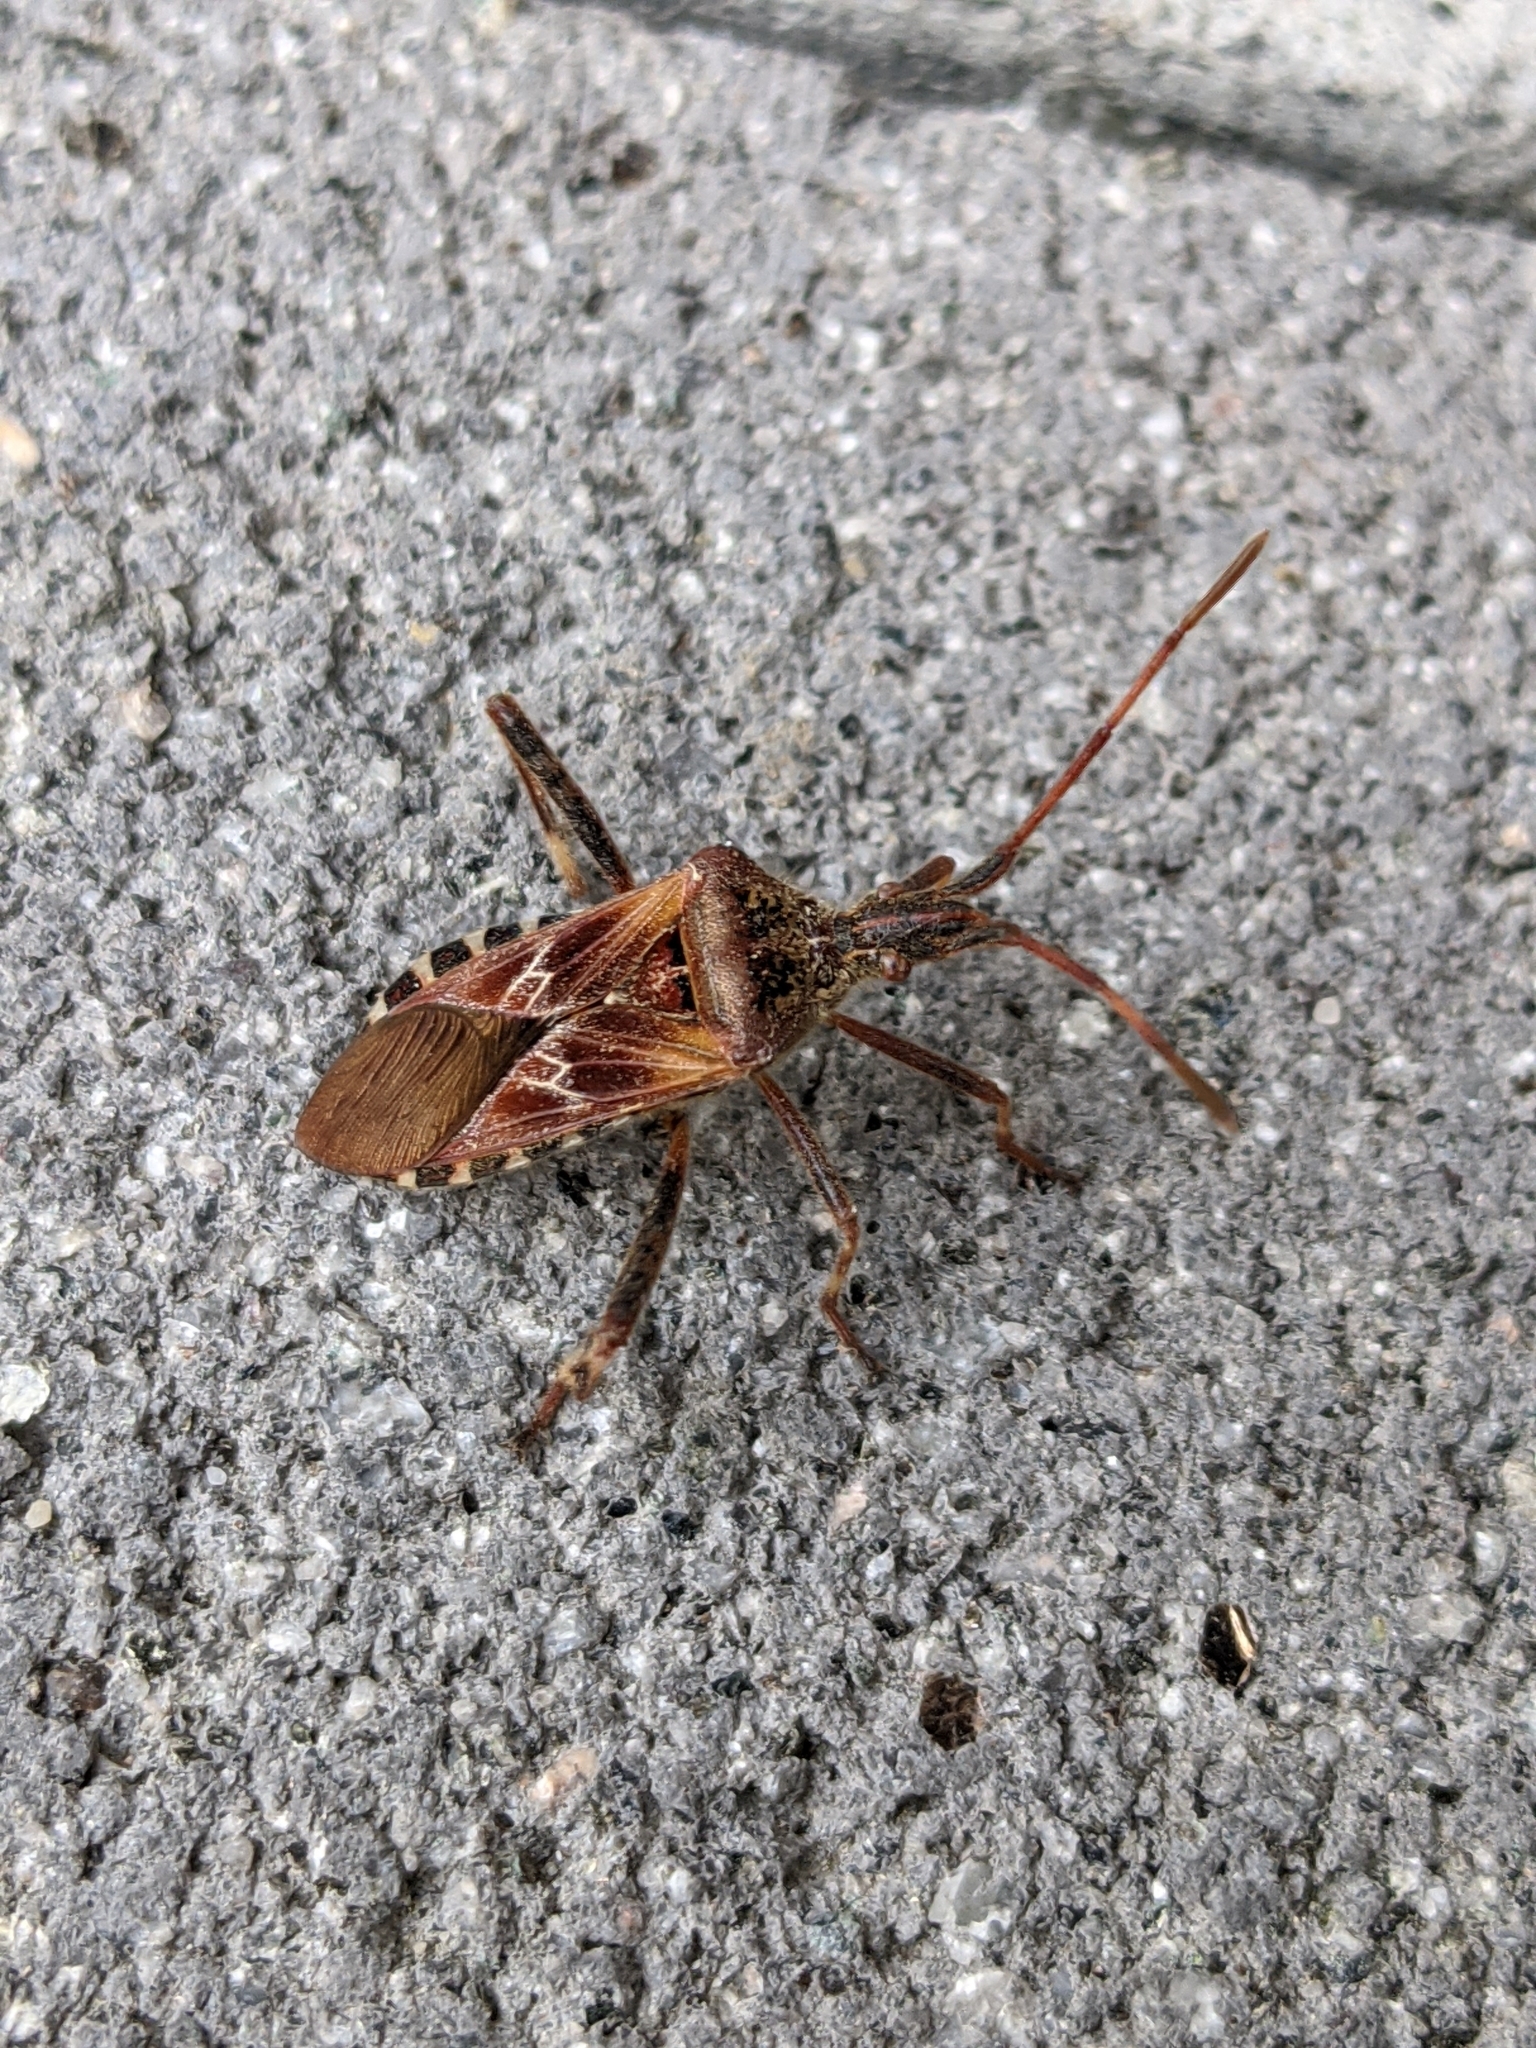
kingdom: Animalia
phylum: Arthropoda
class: Insecta
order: Hemiptera
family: Coreidae
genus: Leptoglossus
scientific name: Leptoglossus occidentalis
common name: Western conifer-seed bug
